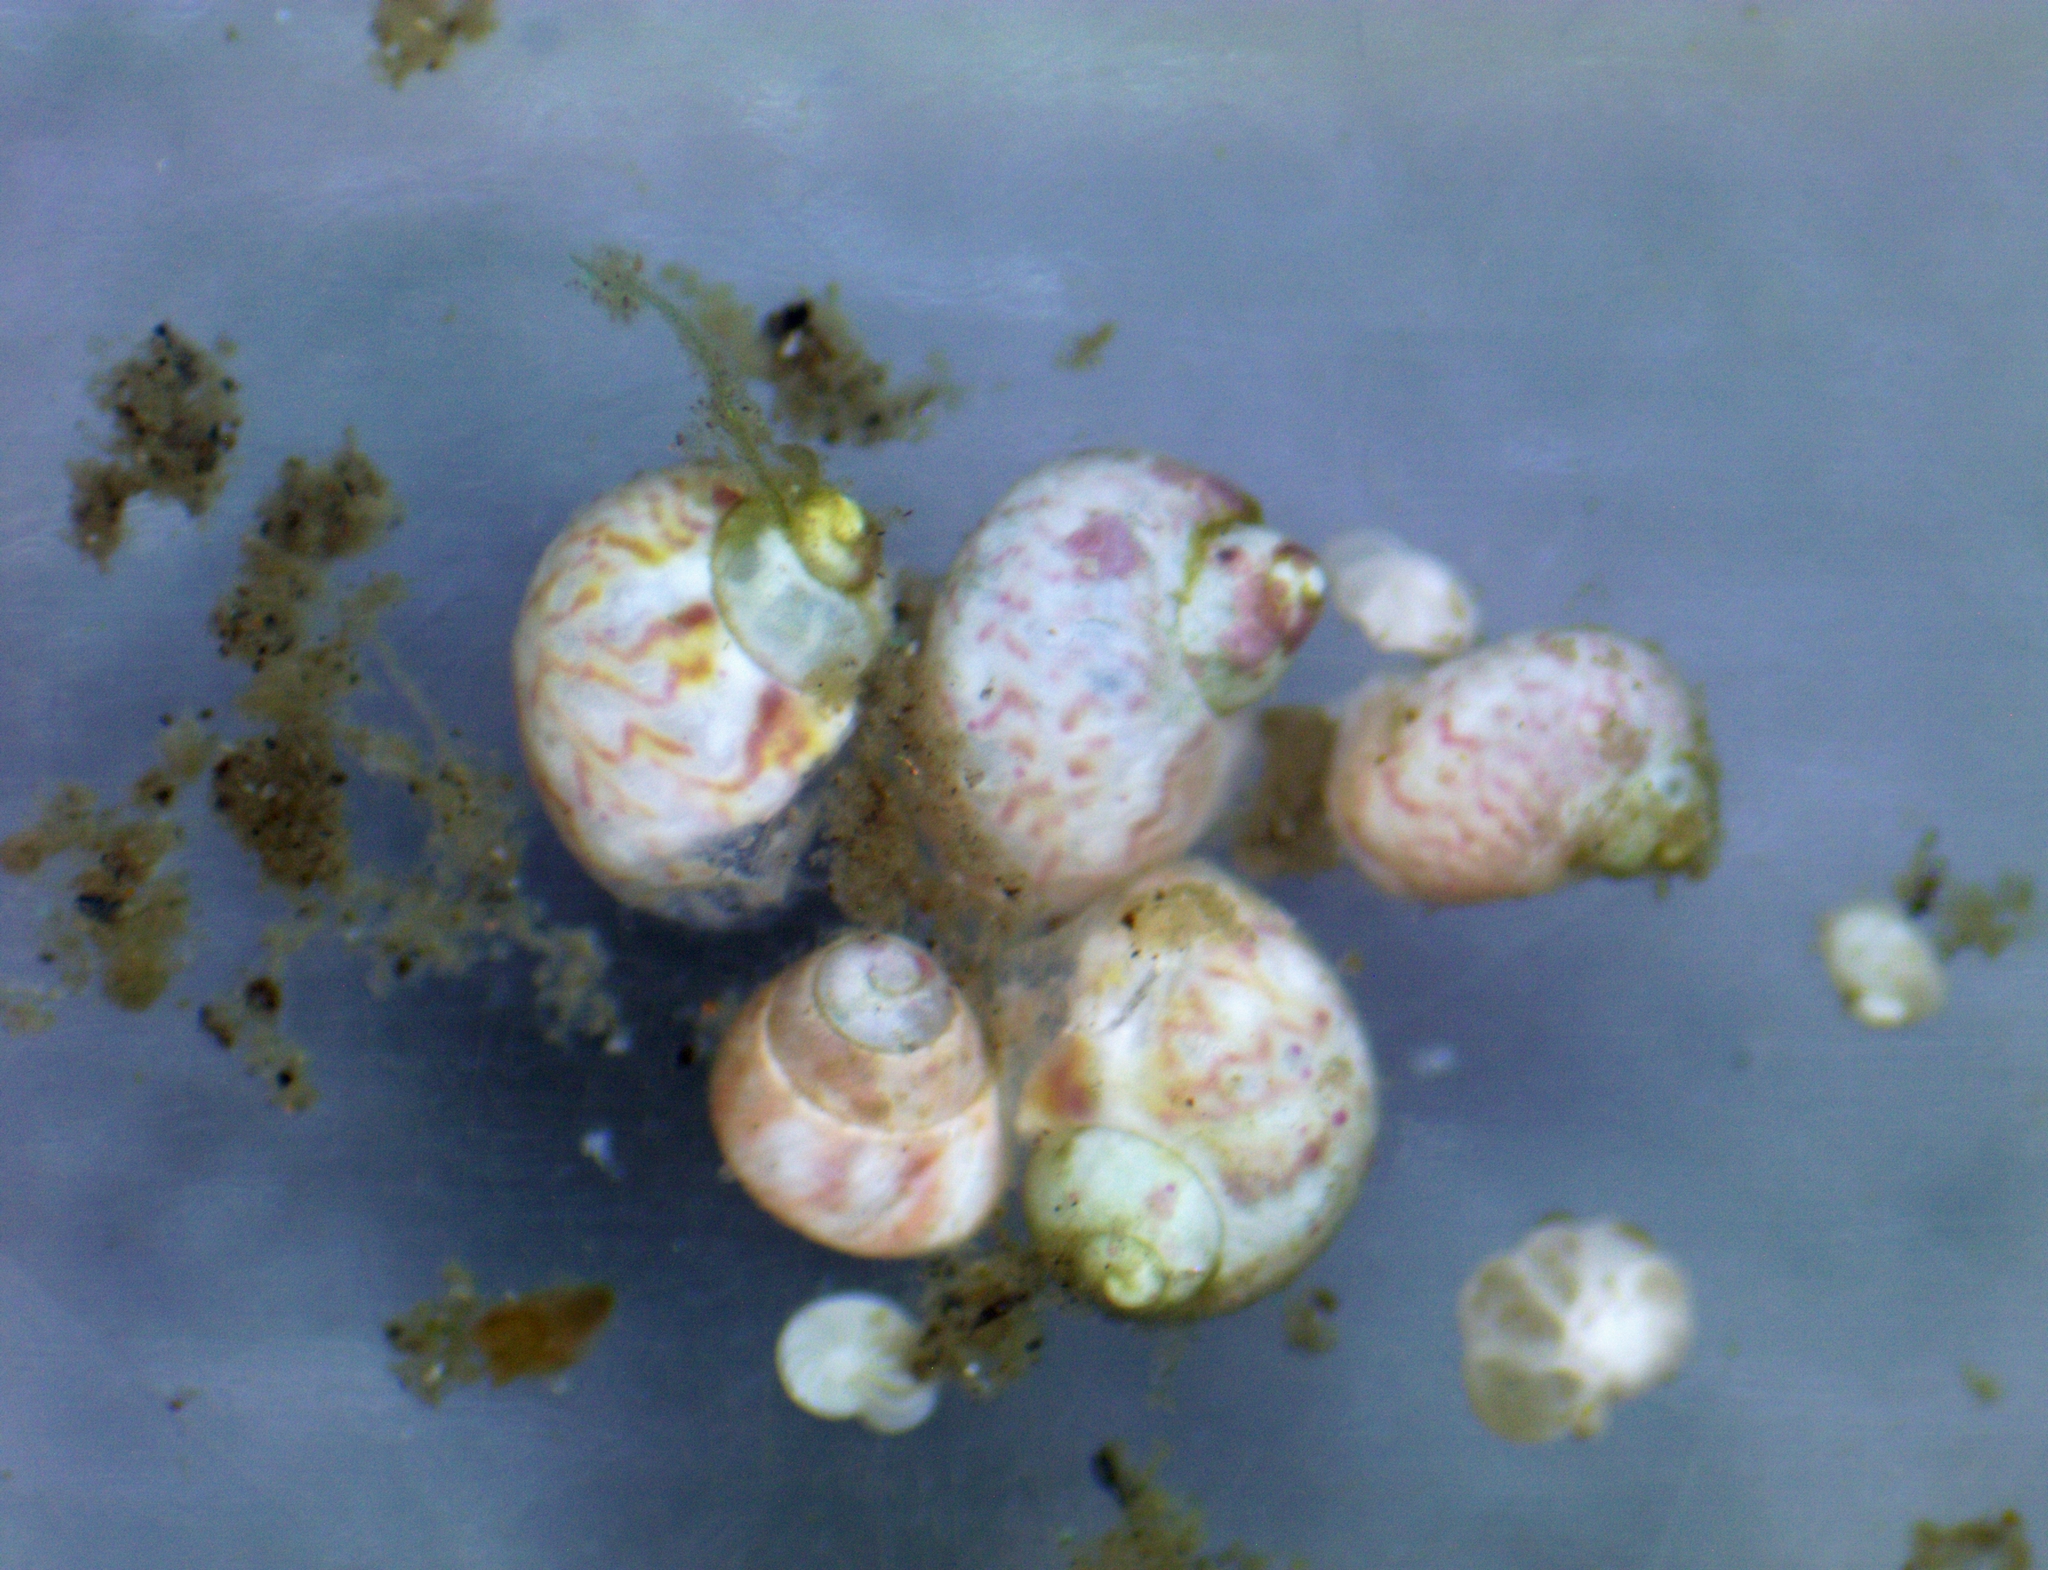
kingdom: Animalia
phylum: Mollusca
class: Gastropoda
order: Trochida
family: Phasianellidae
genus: Hiloa
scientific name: Hiloa variabilis
